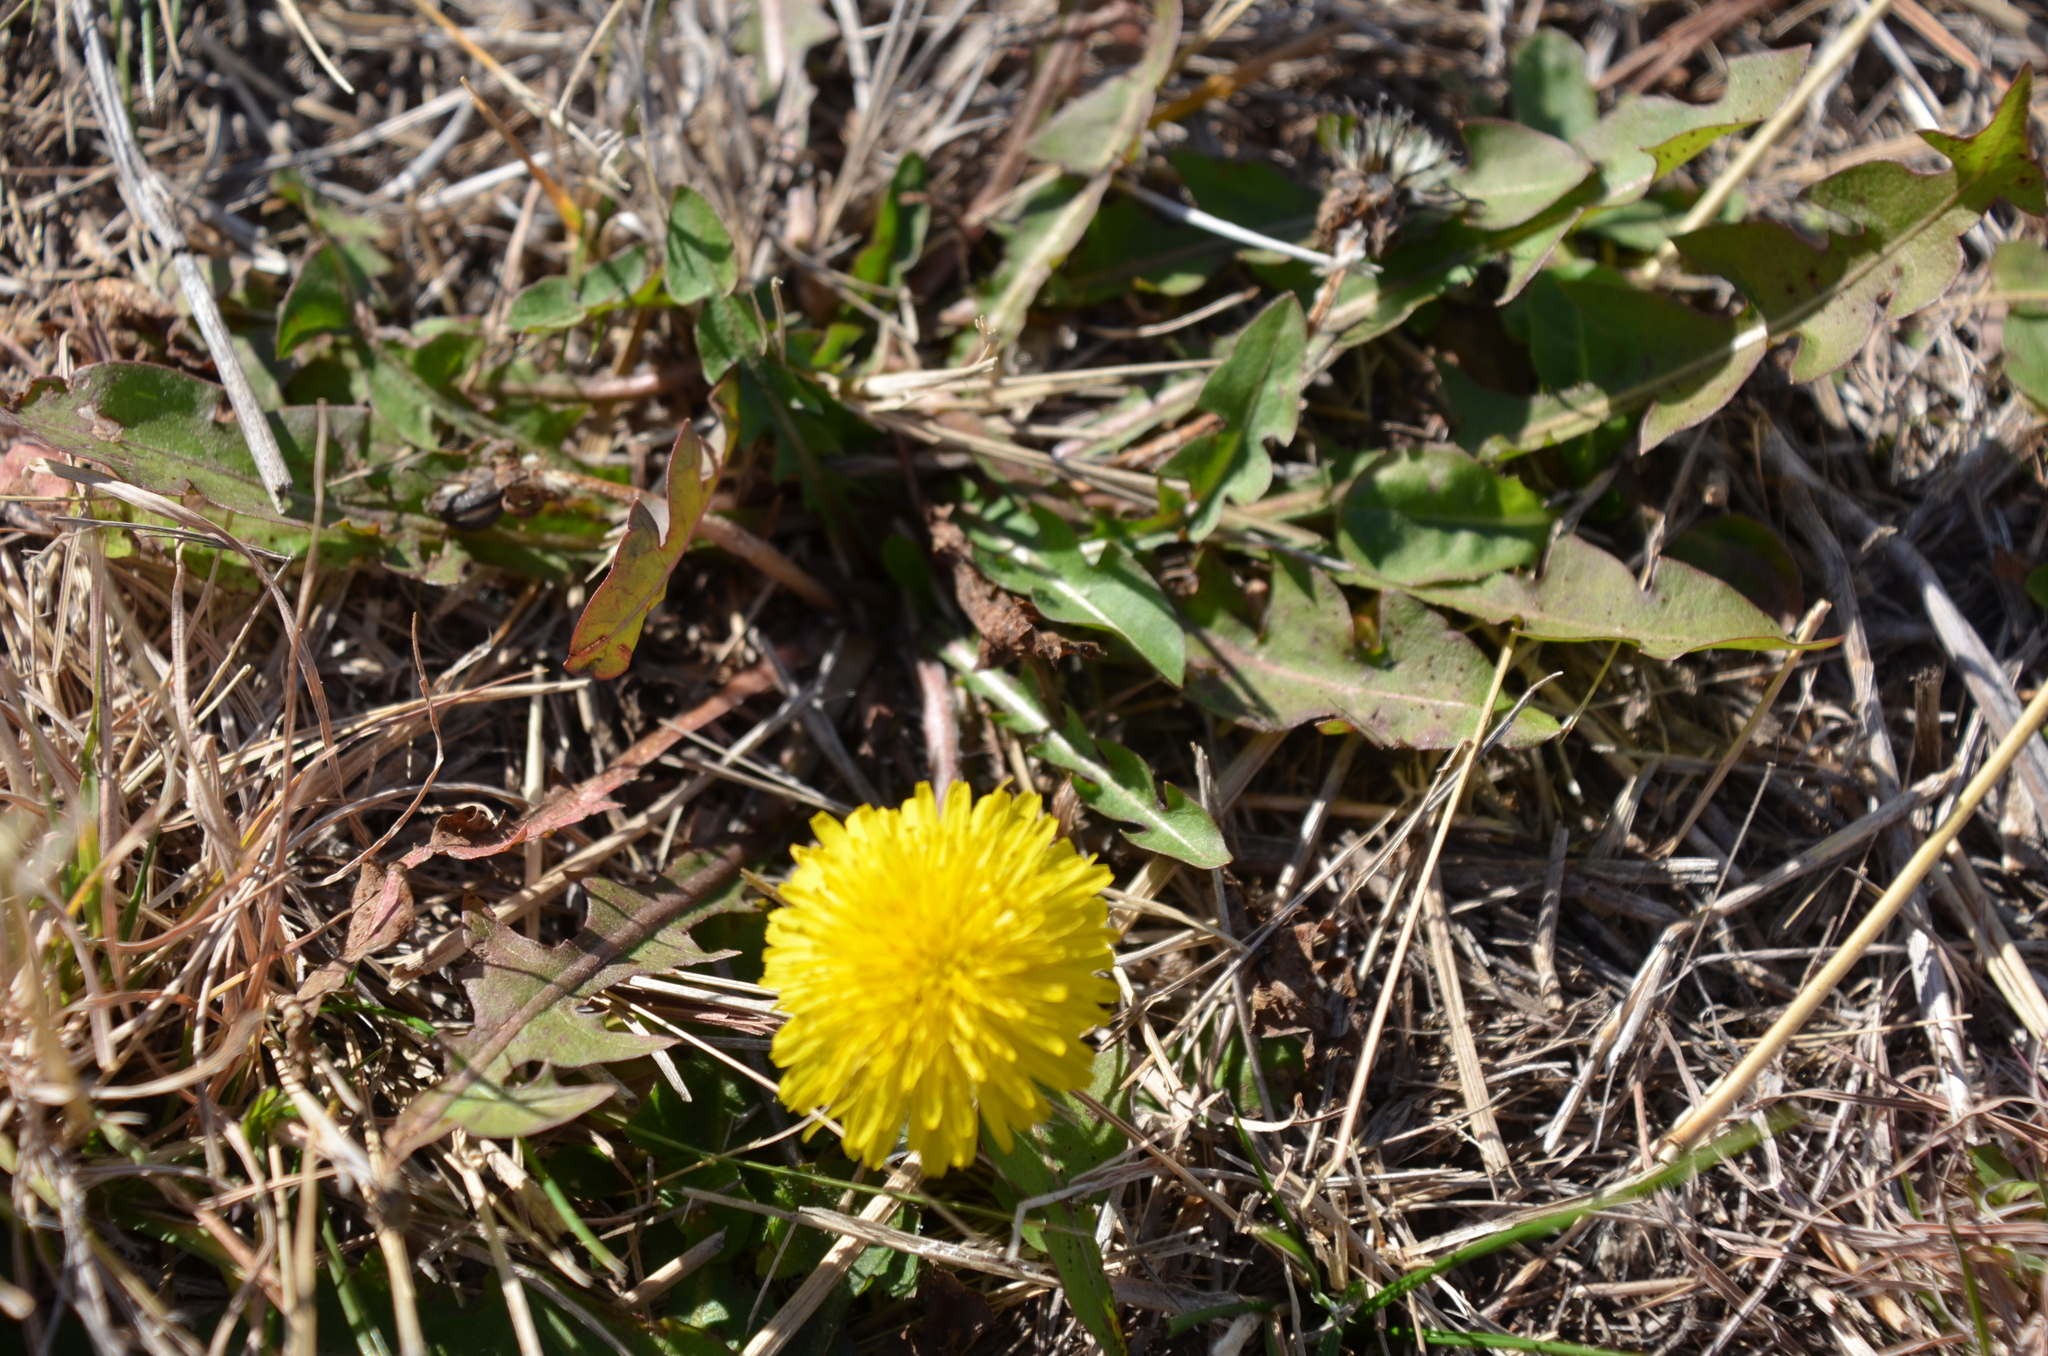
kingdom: Plantae
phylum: Tracheophyta
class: Magnoliopsida
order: Asterales
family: Asteraceae
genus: Taraxacum
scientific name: Taraxacum officinale
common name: Common dandelion
